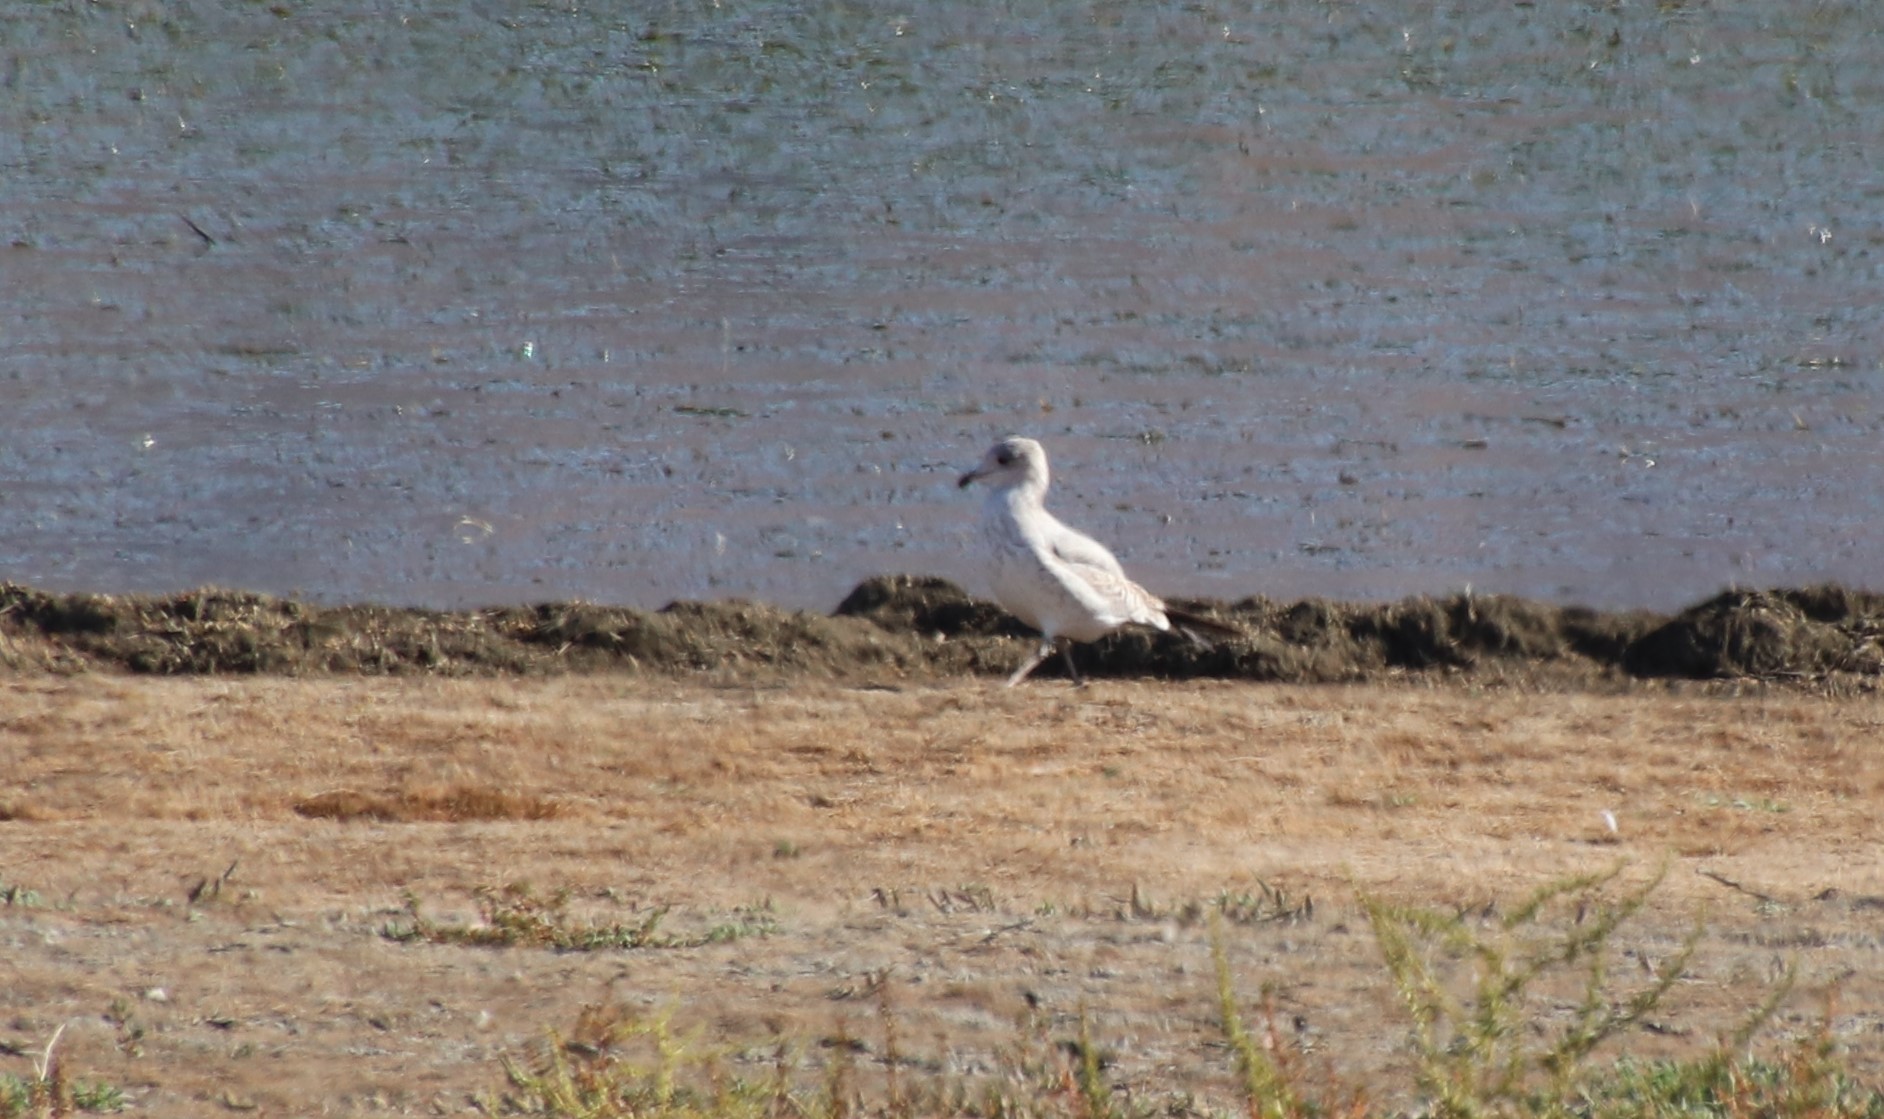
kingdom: Animalia
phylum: Chordata
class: Aves
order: Charadriiformes
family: Laridae
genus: Larus
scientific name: Larus delawarensis
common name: Ring-billed gull
